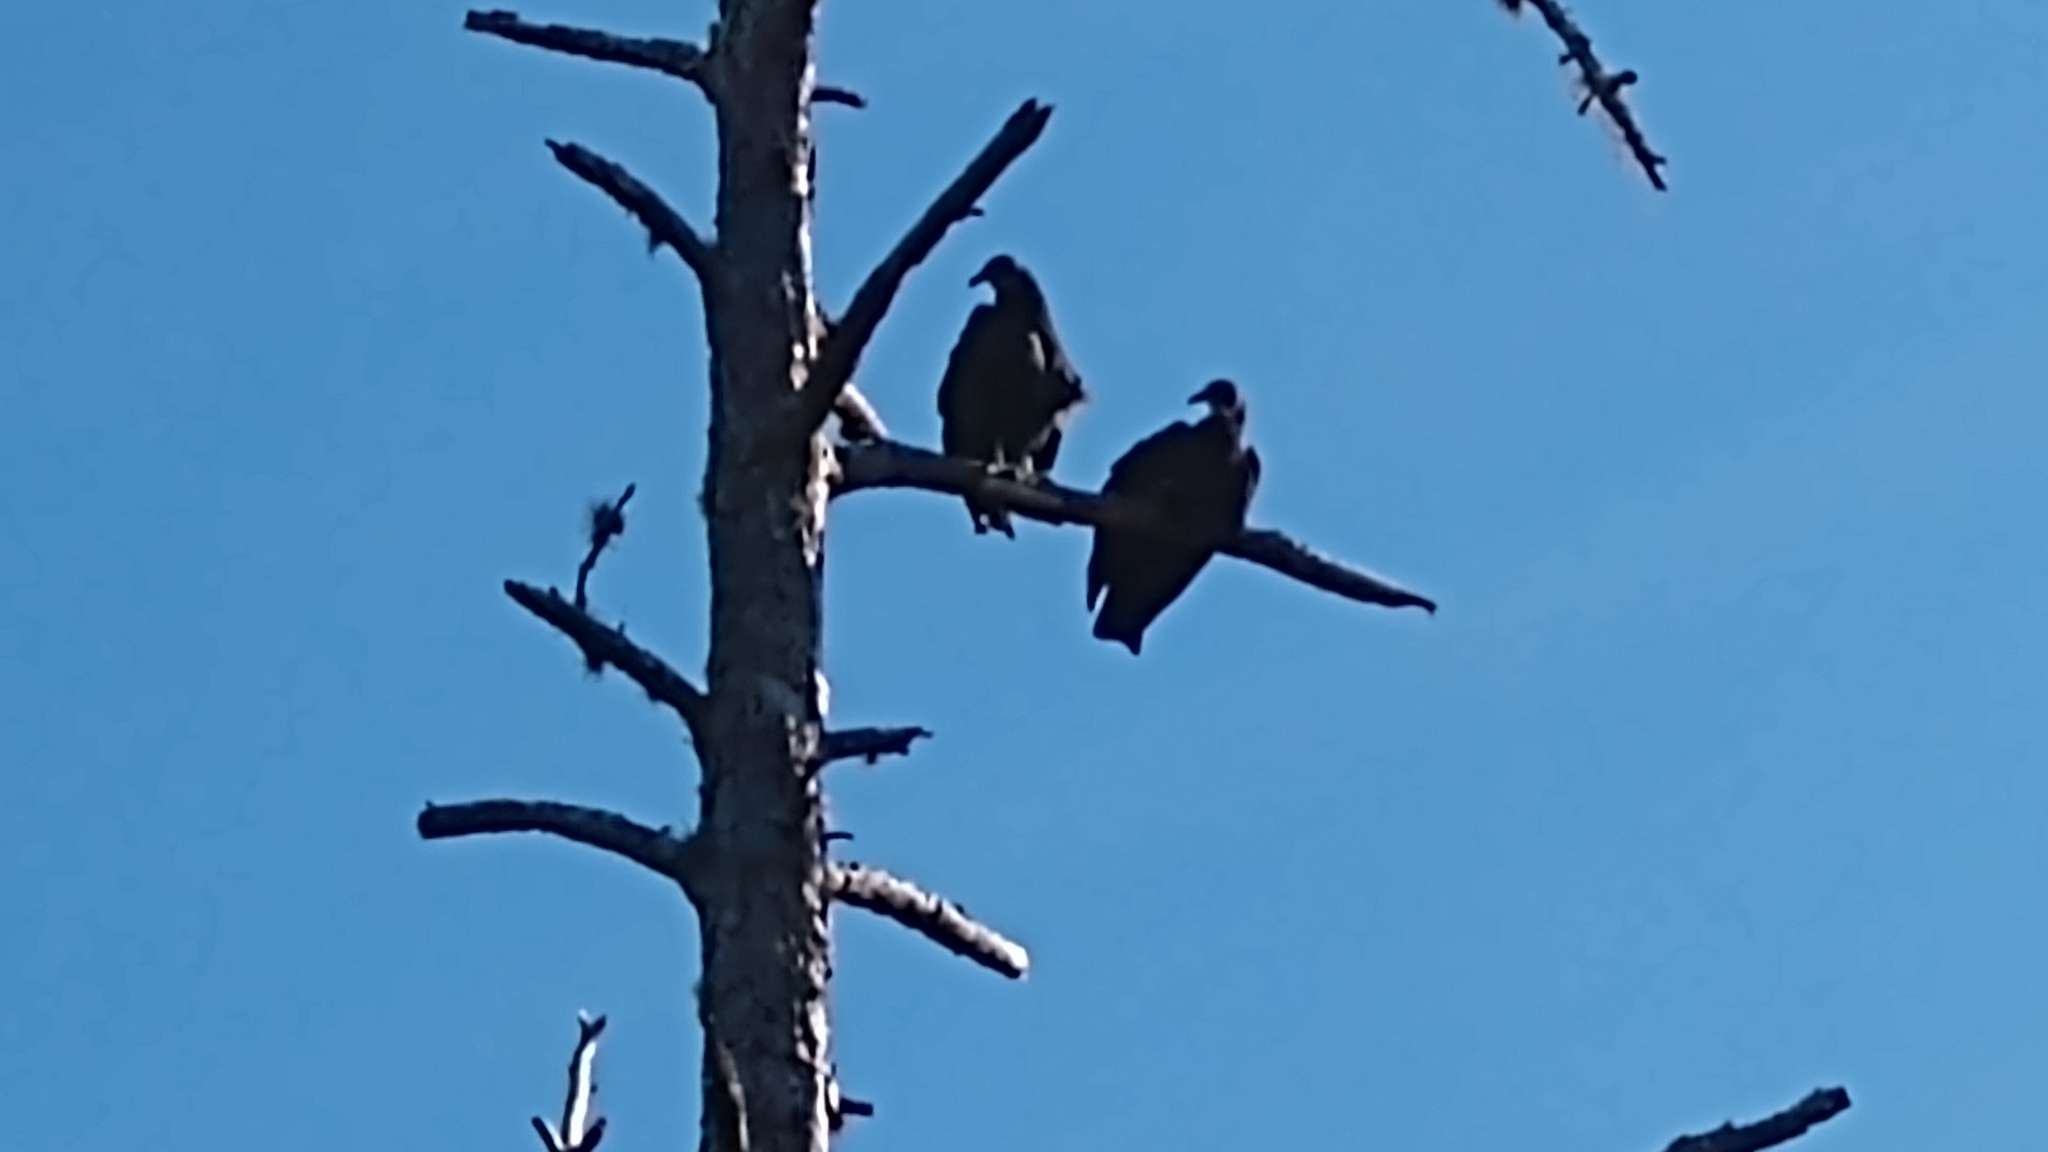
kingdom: Animalia
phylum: Chordata
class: Aves
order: Accipitriformes
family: Cathartidae
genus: Coragyps
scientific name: Coragyps atratus
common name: Black vulture
